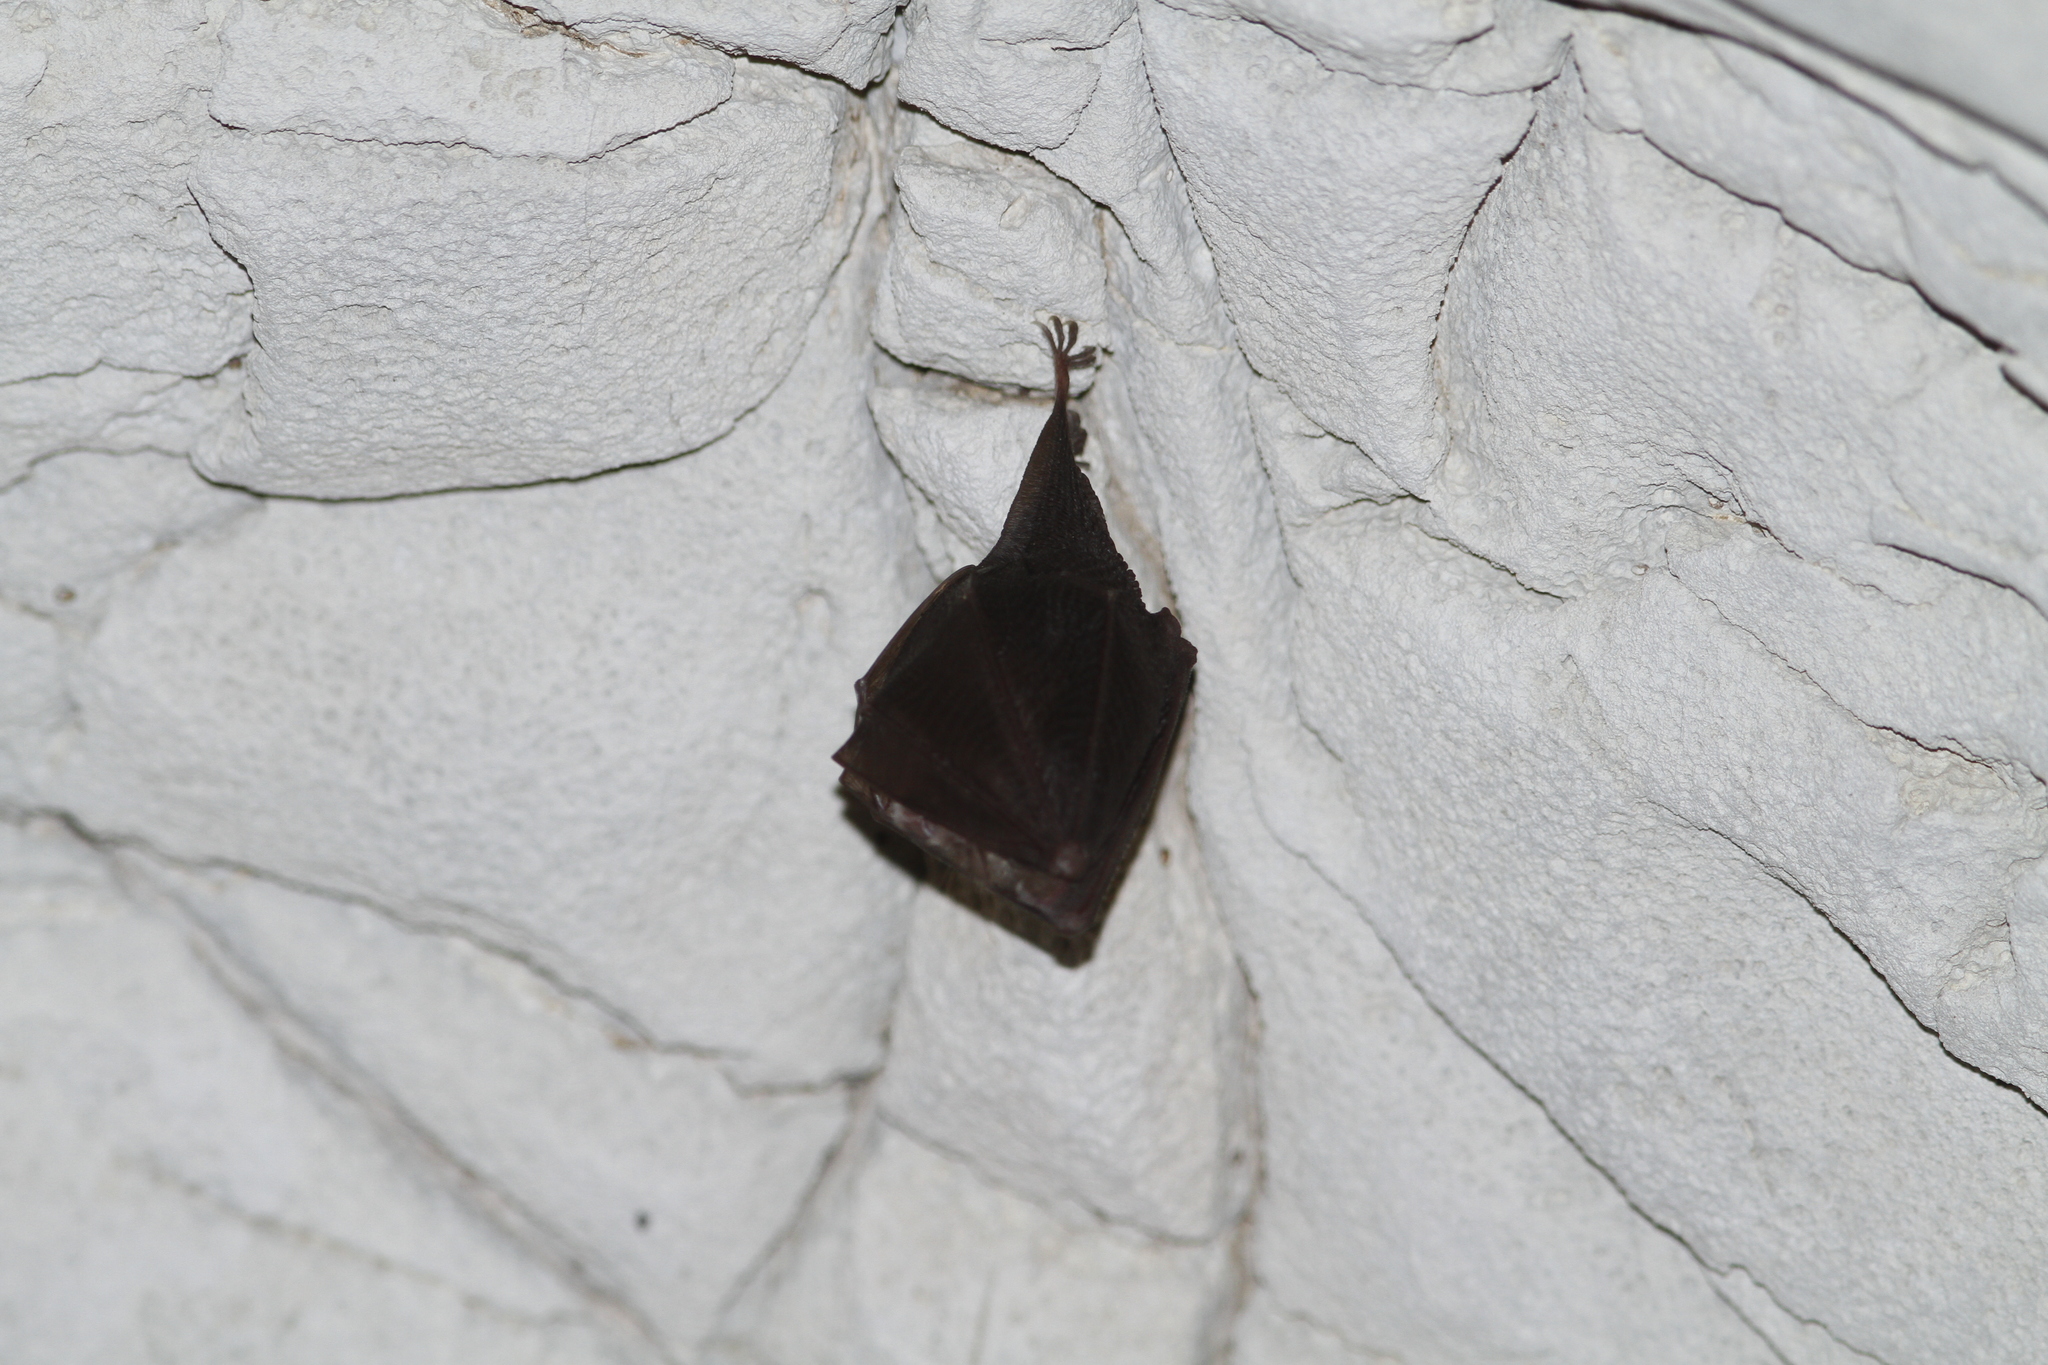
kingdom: Animalia
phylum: Chordata
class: Mammalia
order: Chiroptera
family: Rhinolophidae
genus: Rhinolophus
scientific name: Rhinolophus hipposideros
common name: Lesser horseshoe bat
